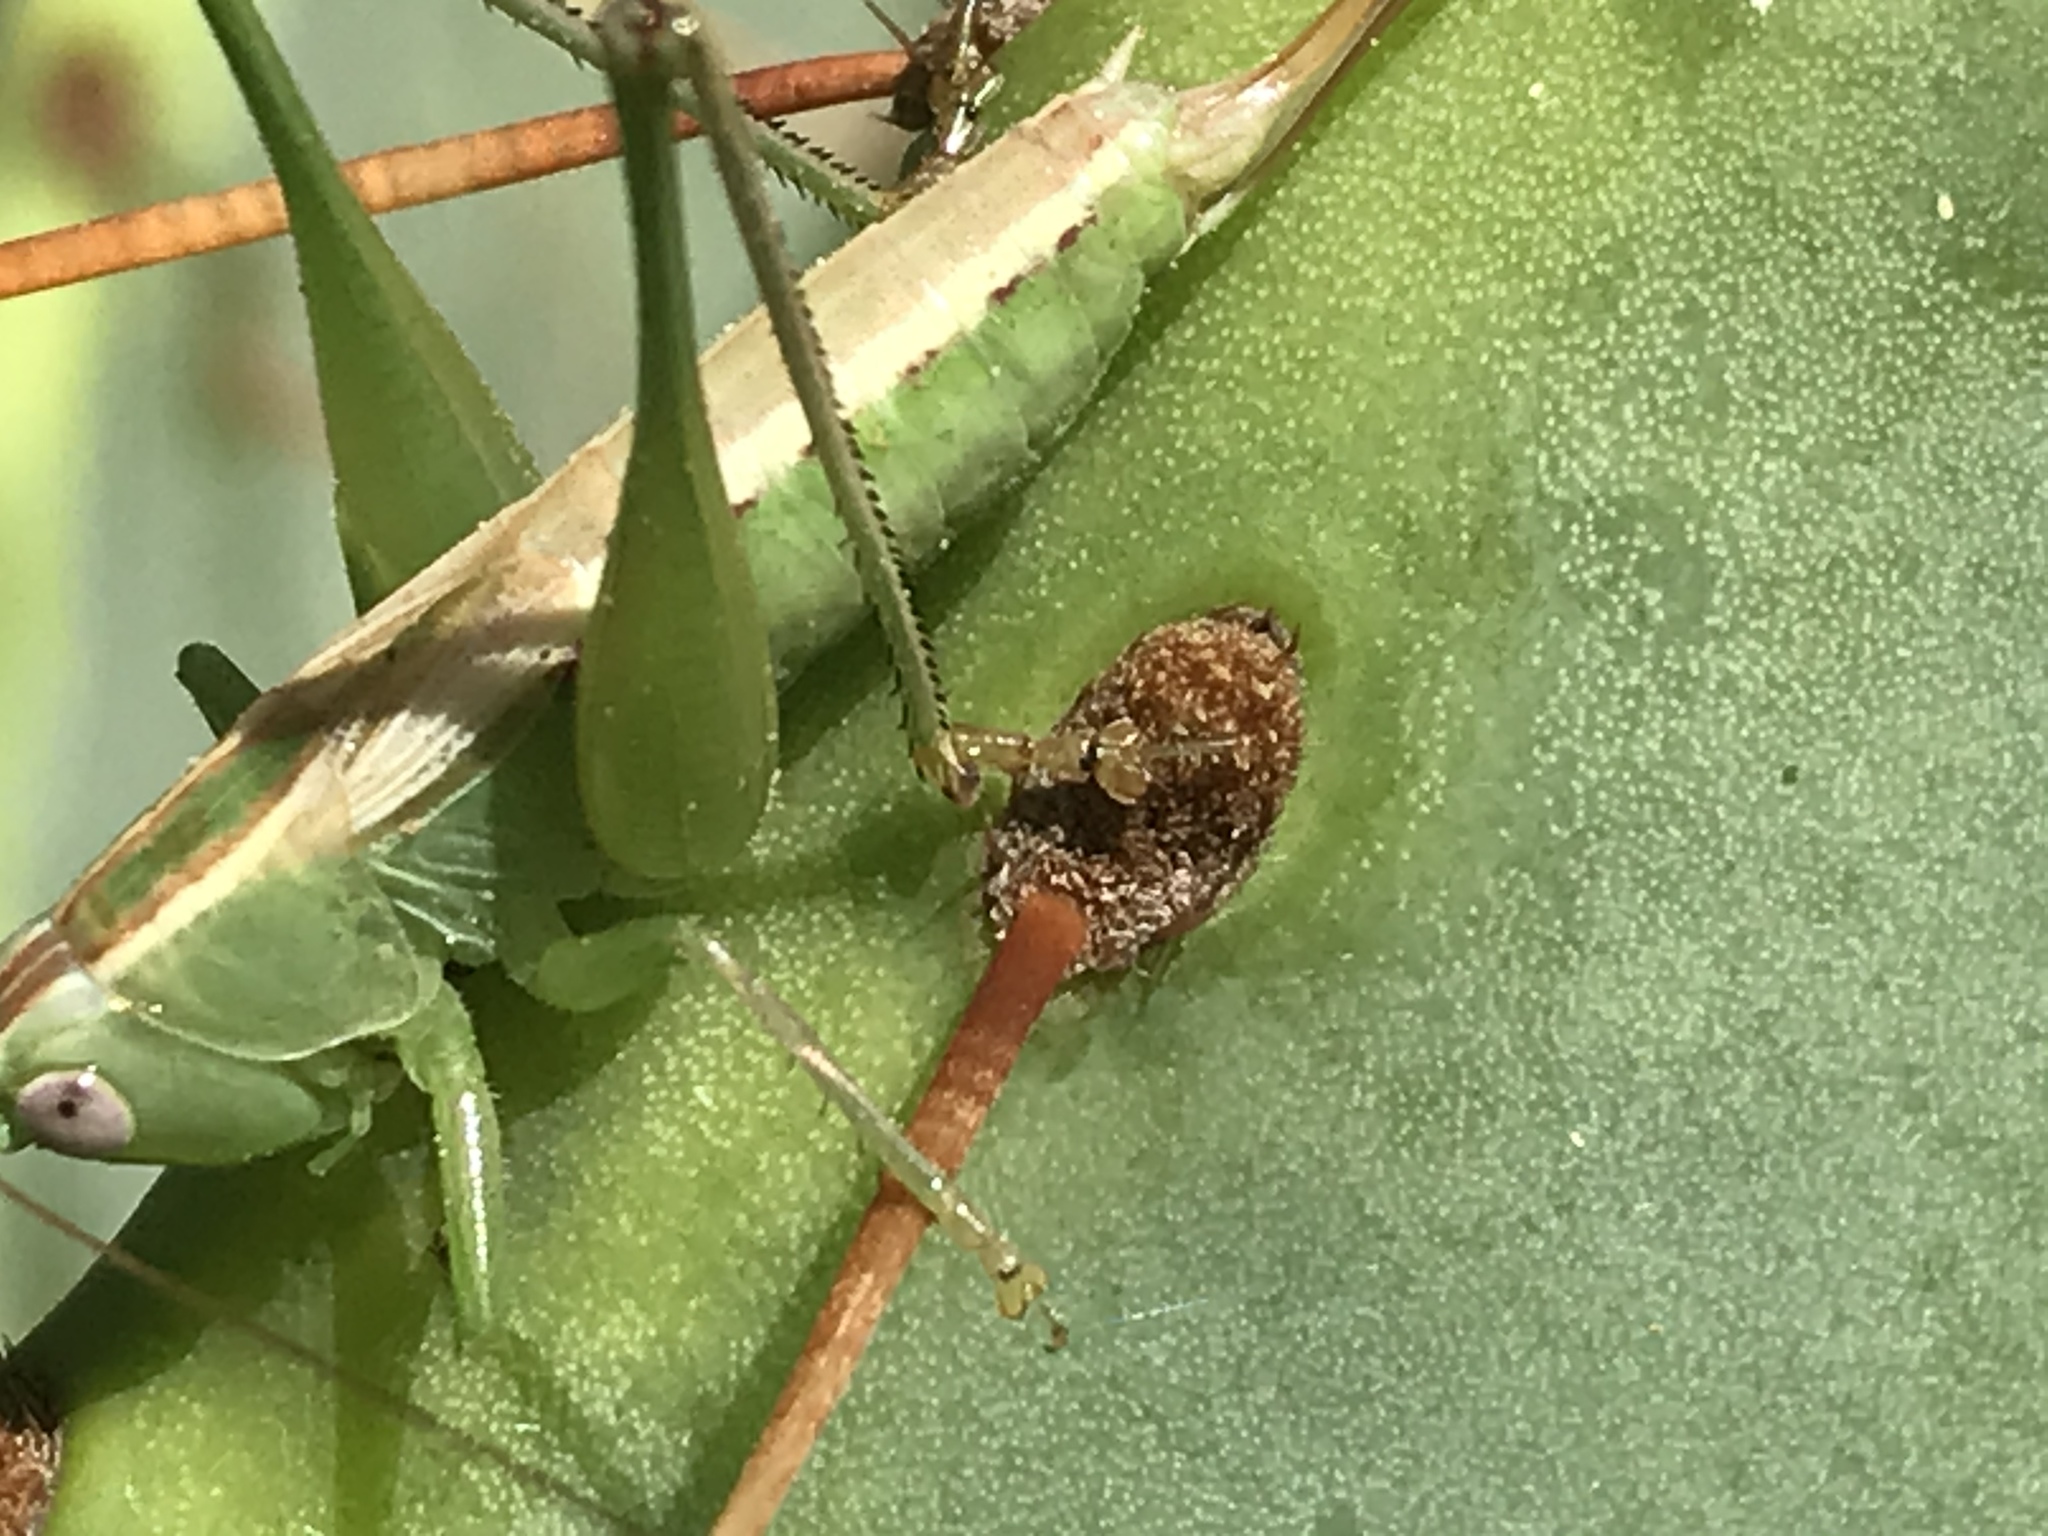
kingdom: Animalia
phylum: Arthropoda
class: Insecta
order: Orthoptera
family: Tettigoniidae
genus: Conocephalus
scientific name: Conocephalus strictus
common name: Straight-lanced katydid
